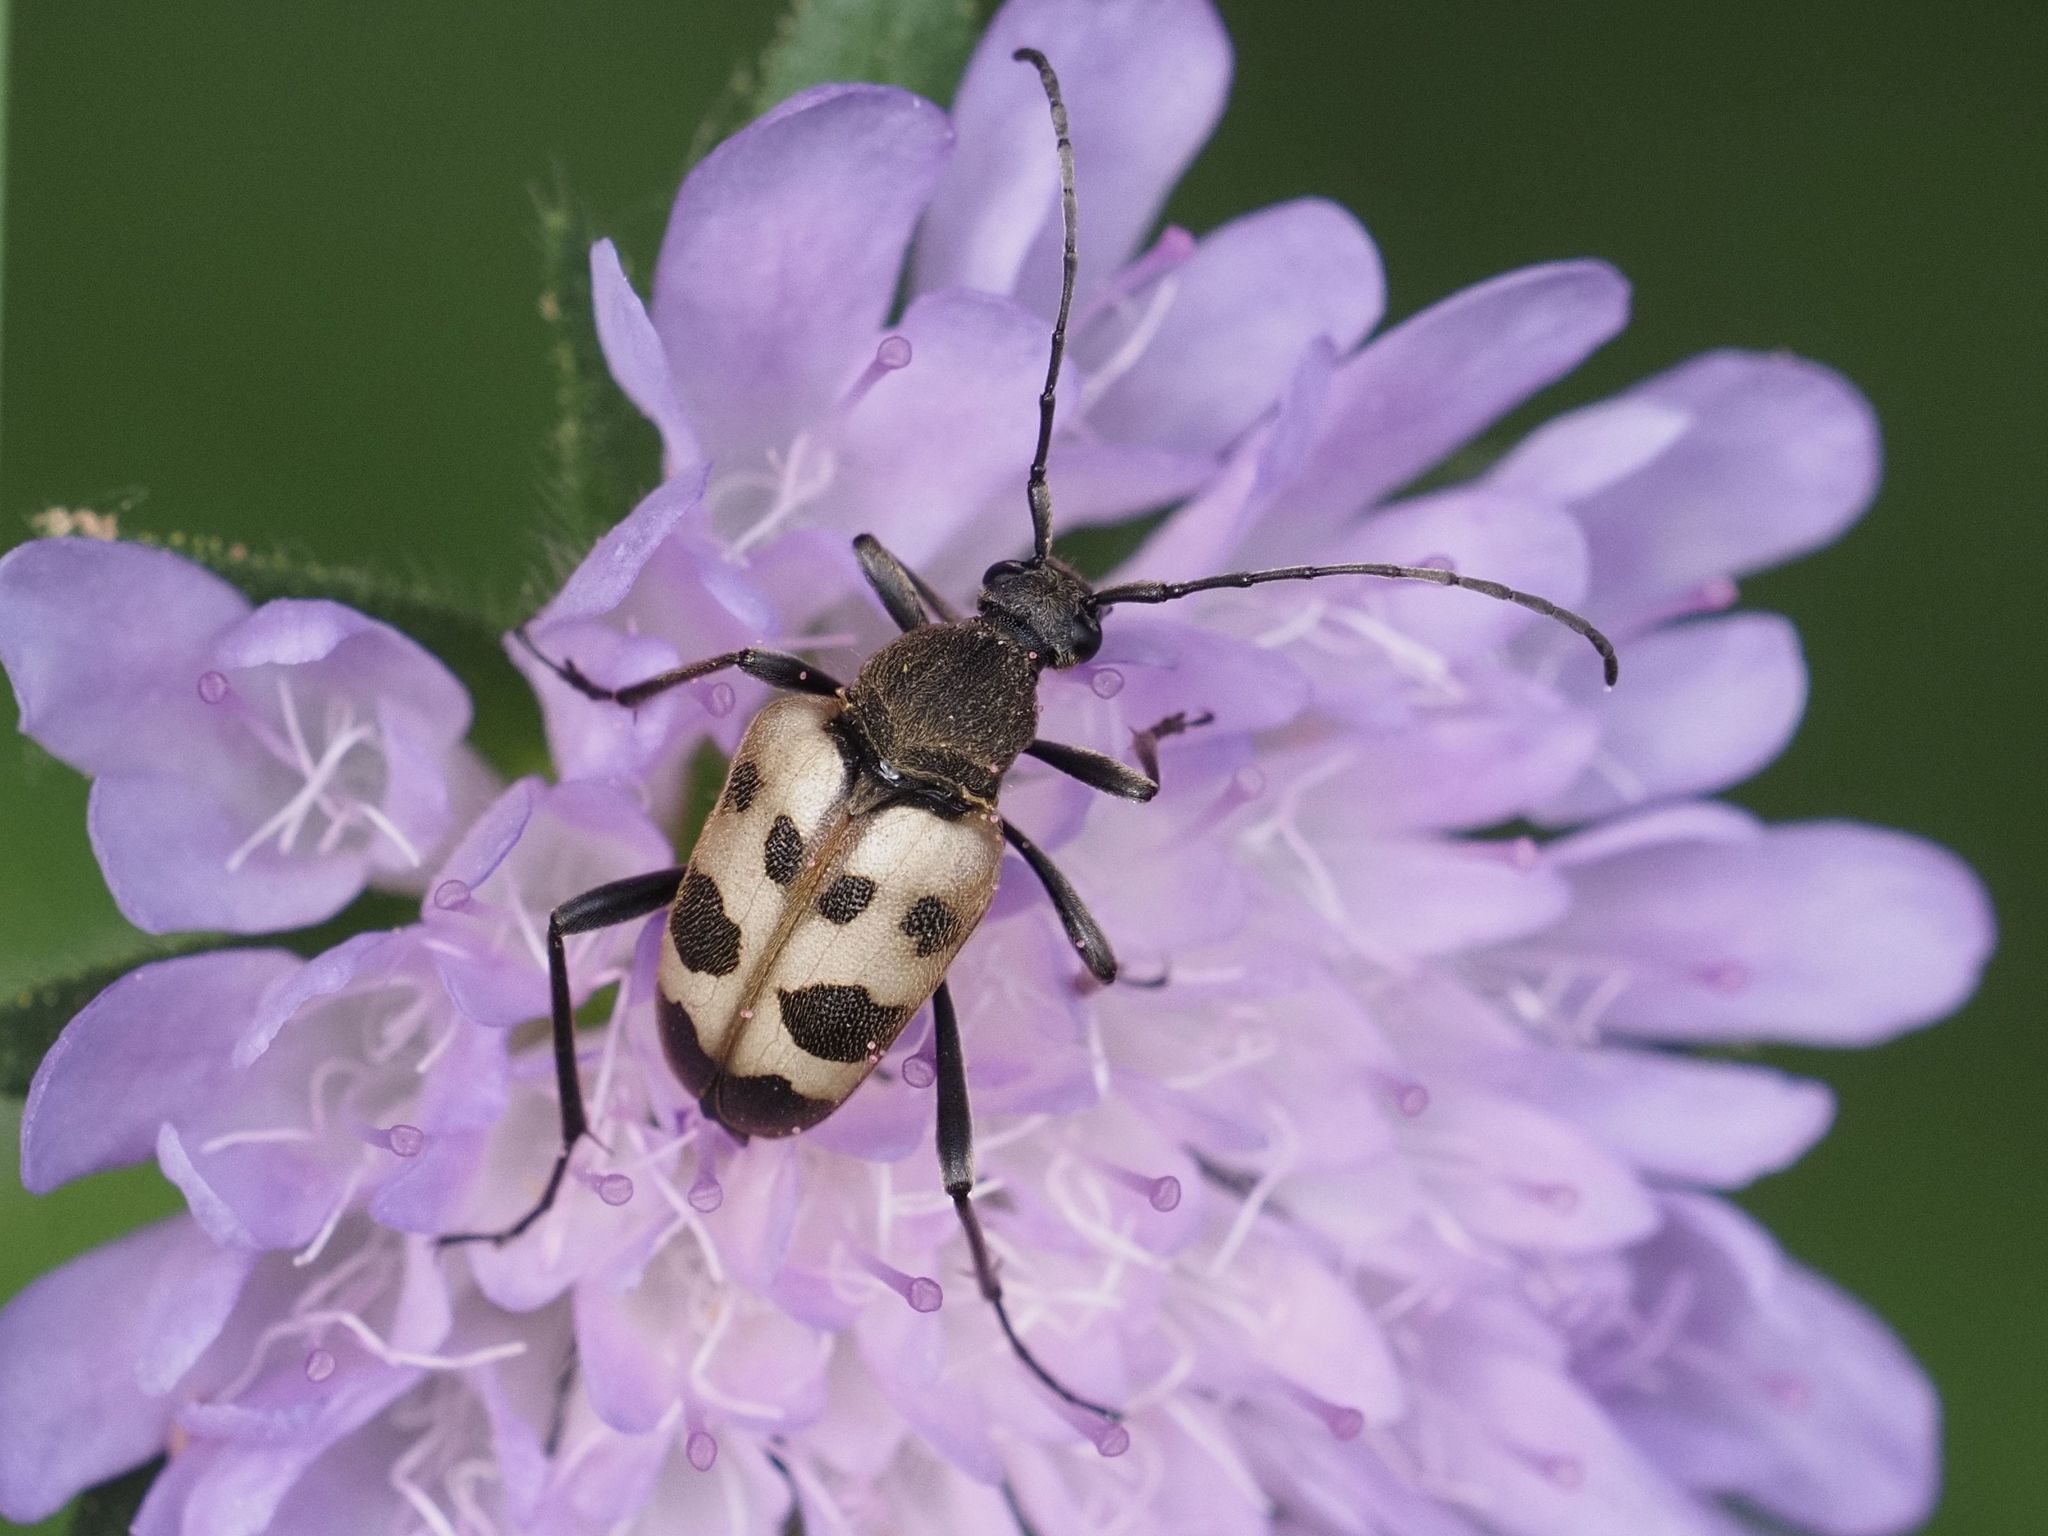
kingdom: Animalia
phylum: Arthropoda
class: Insecta
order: Coleoptera
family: Cerambycidae
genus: Pachytodes
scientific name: Pachytodes cerambyciformis
